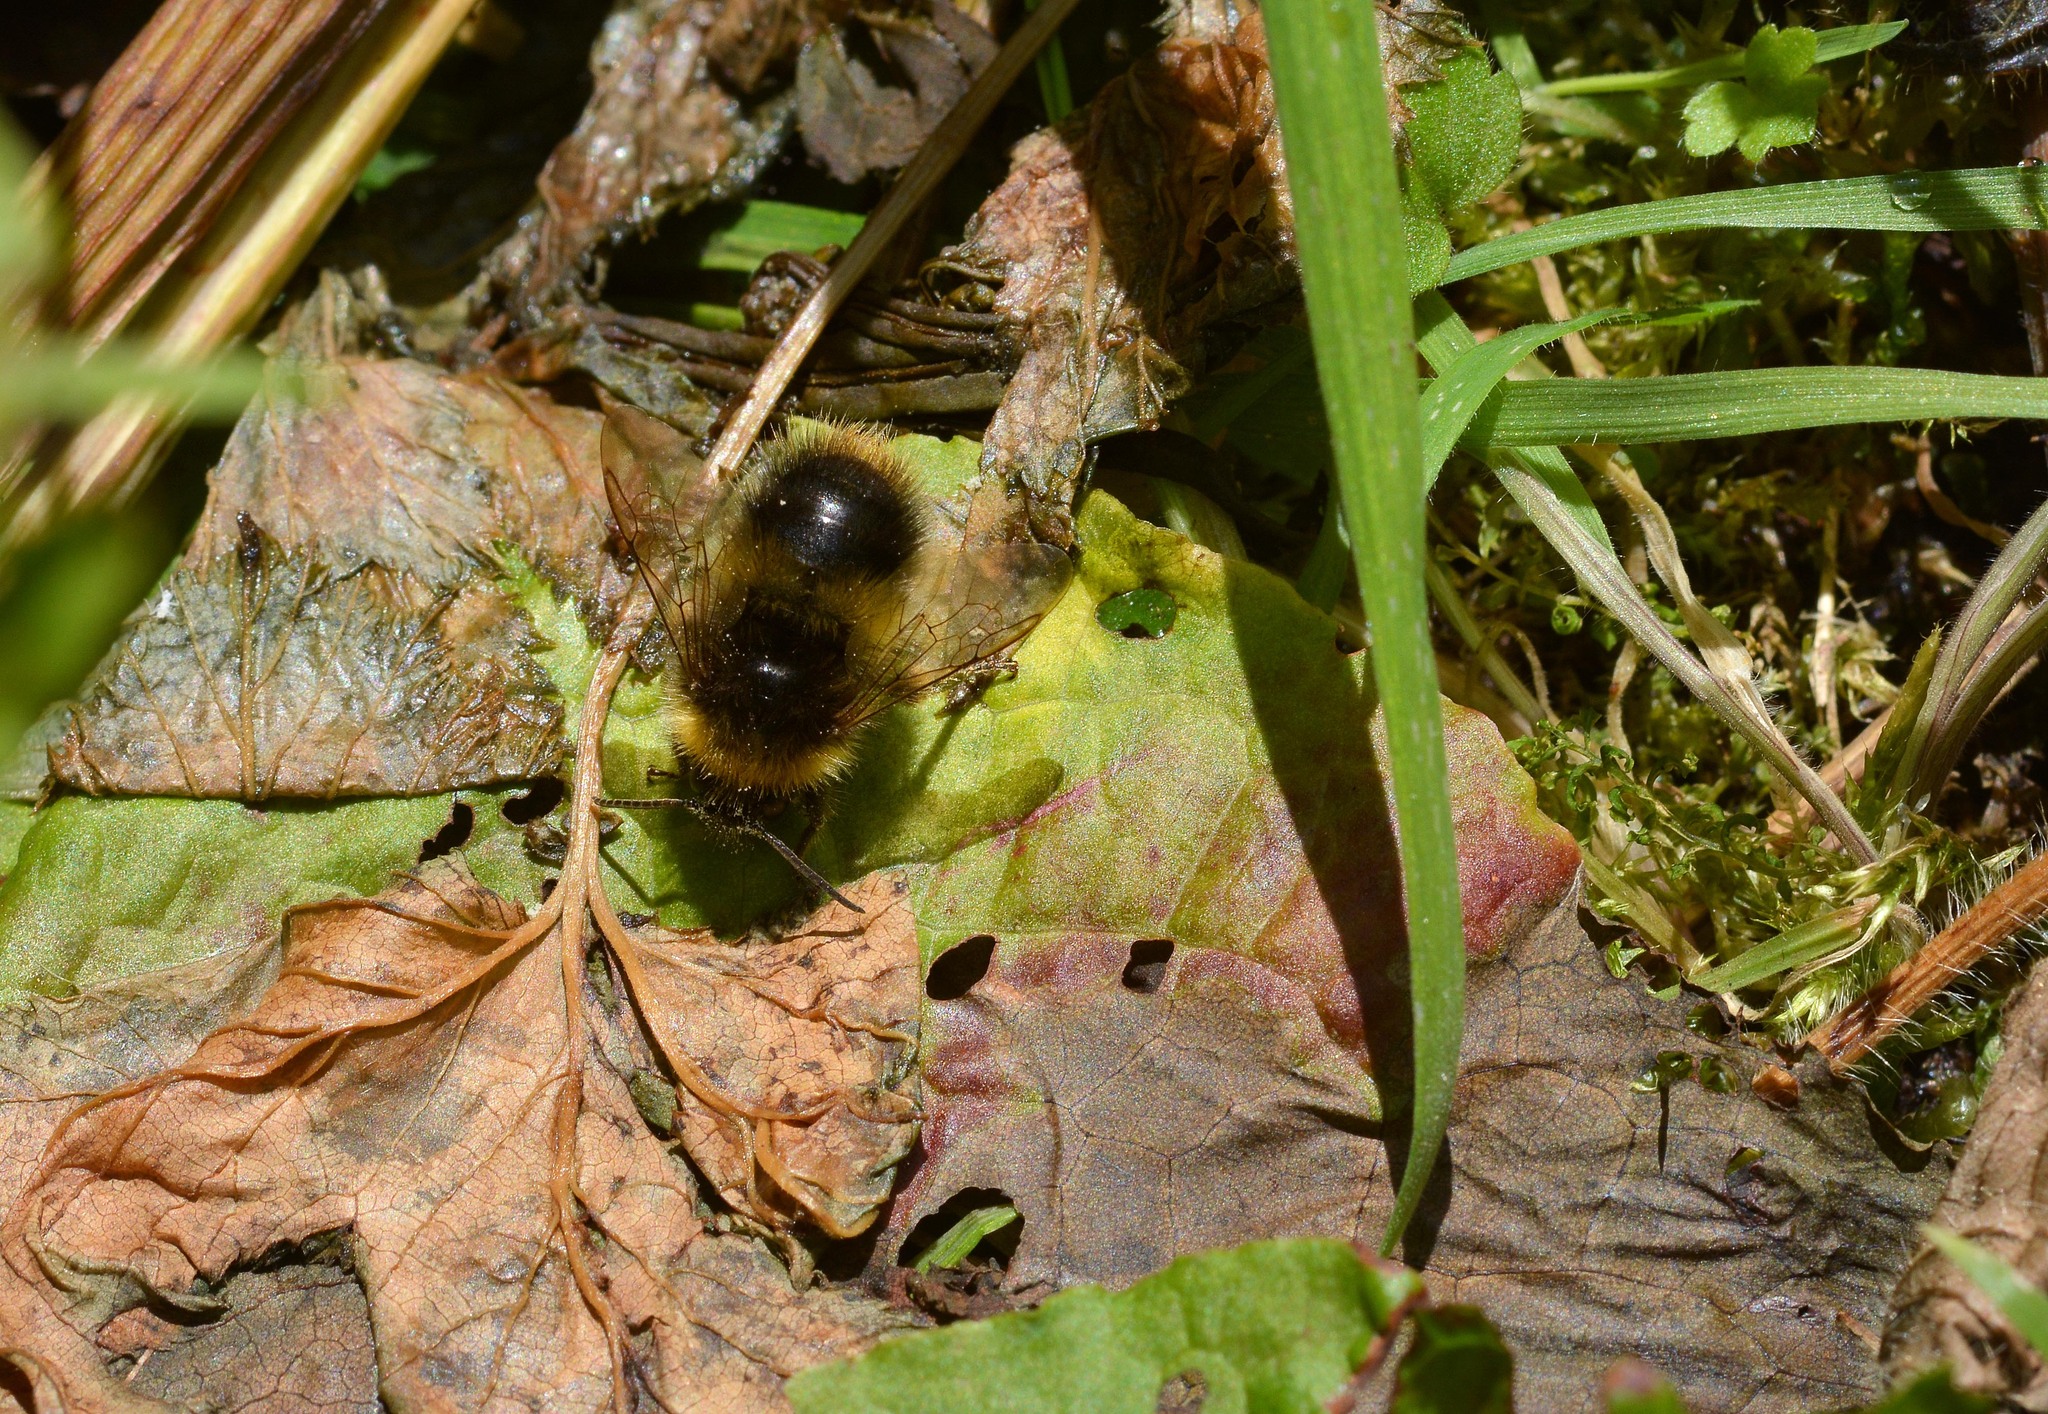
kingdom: Animalia
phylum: Arthropoda
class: Insecta
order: Hymenoptera
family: Apidae
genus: Bombus
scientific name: Bombus pratorum
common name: Early humble-bee
